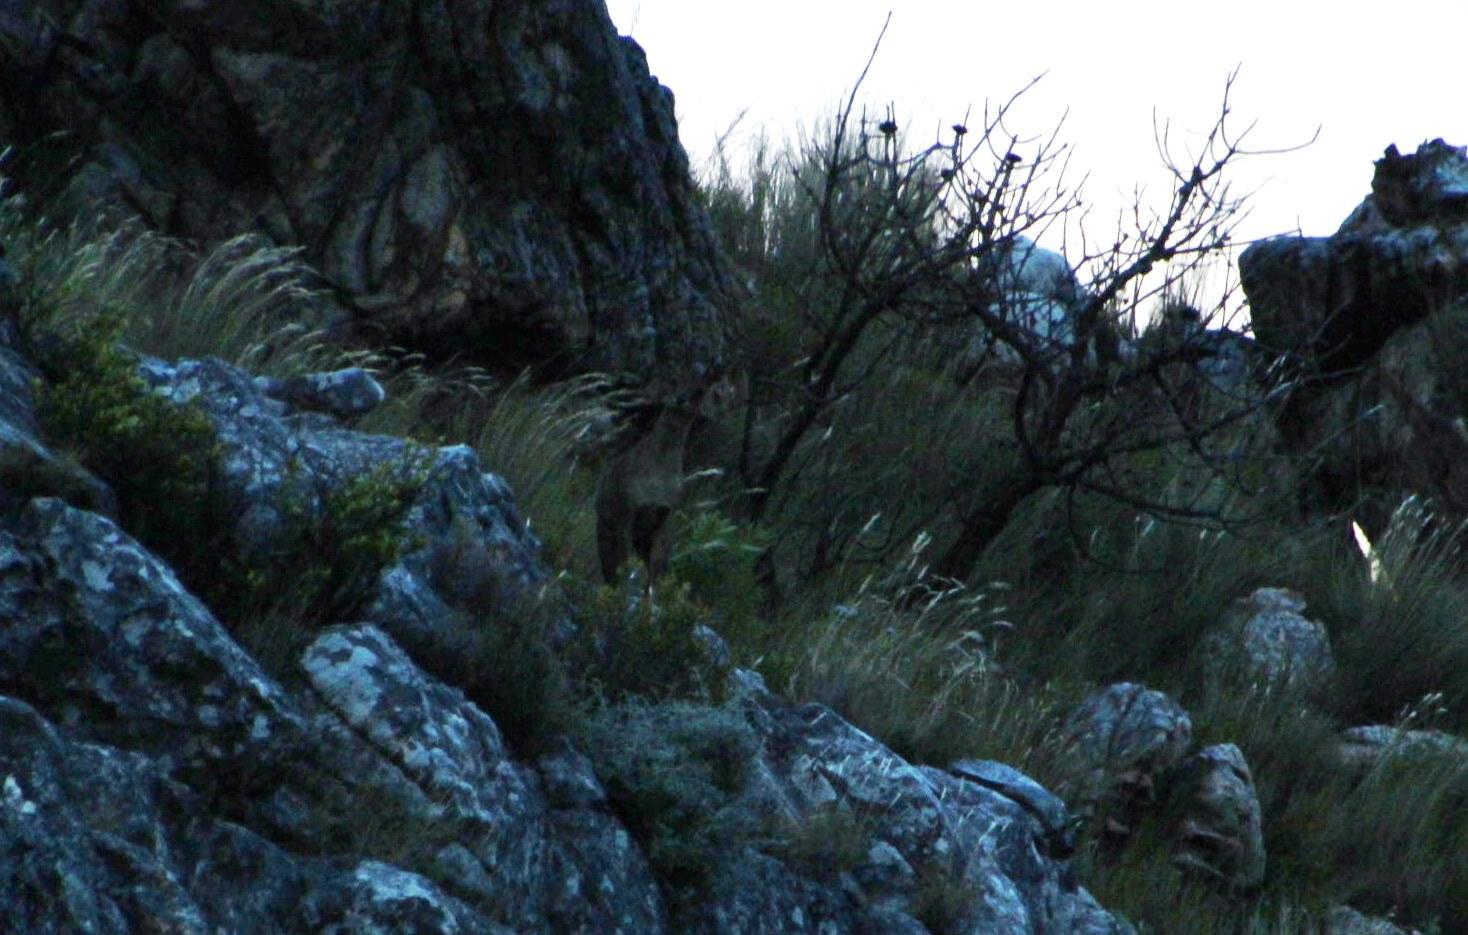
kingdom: Animalia
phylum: Chordata
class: Mammalia
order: Artiodactyla
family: Bovidae
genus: Oreotragus
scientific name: Oreotragus oreotragus
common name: Klipspringer
